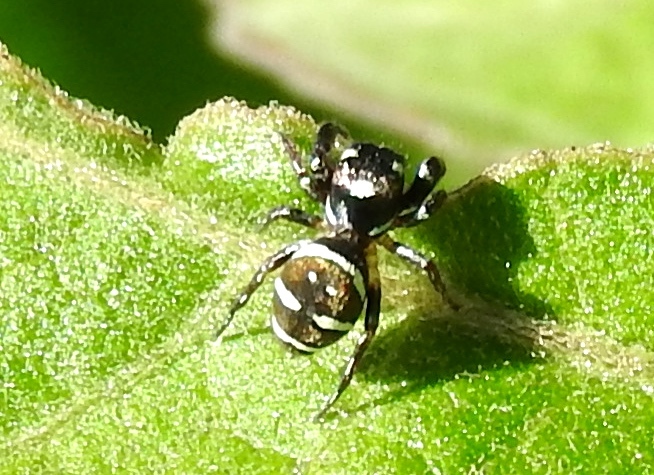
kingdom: Animalia
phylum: Arthropoda
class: Arachnida
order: Araneae
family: Salticidae
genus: Sassacus
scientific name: Sassacus
